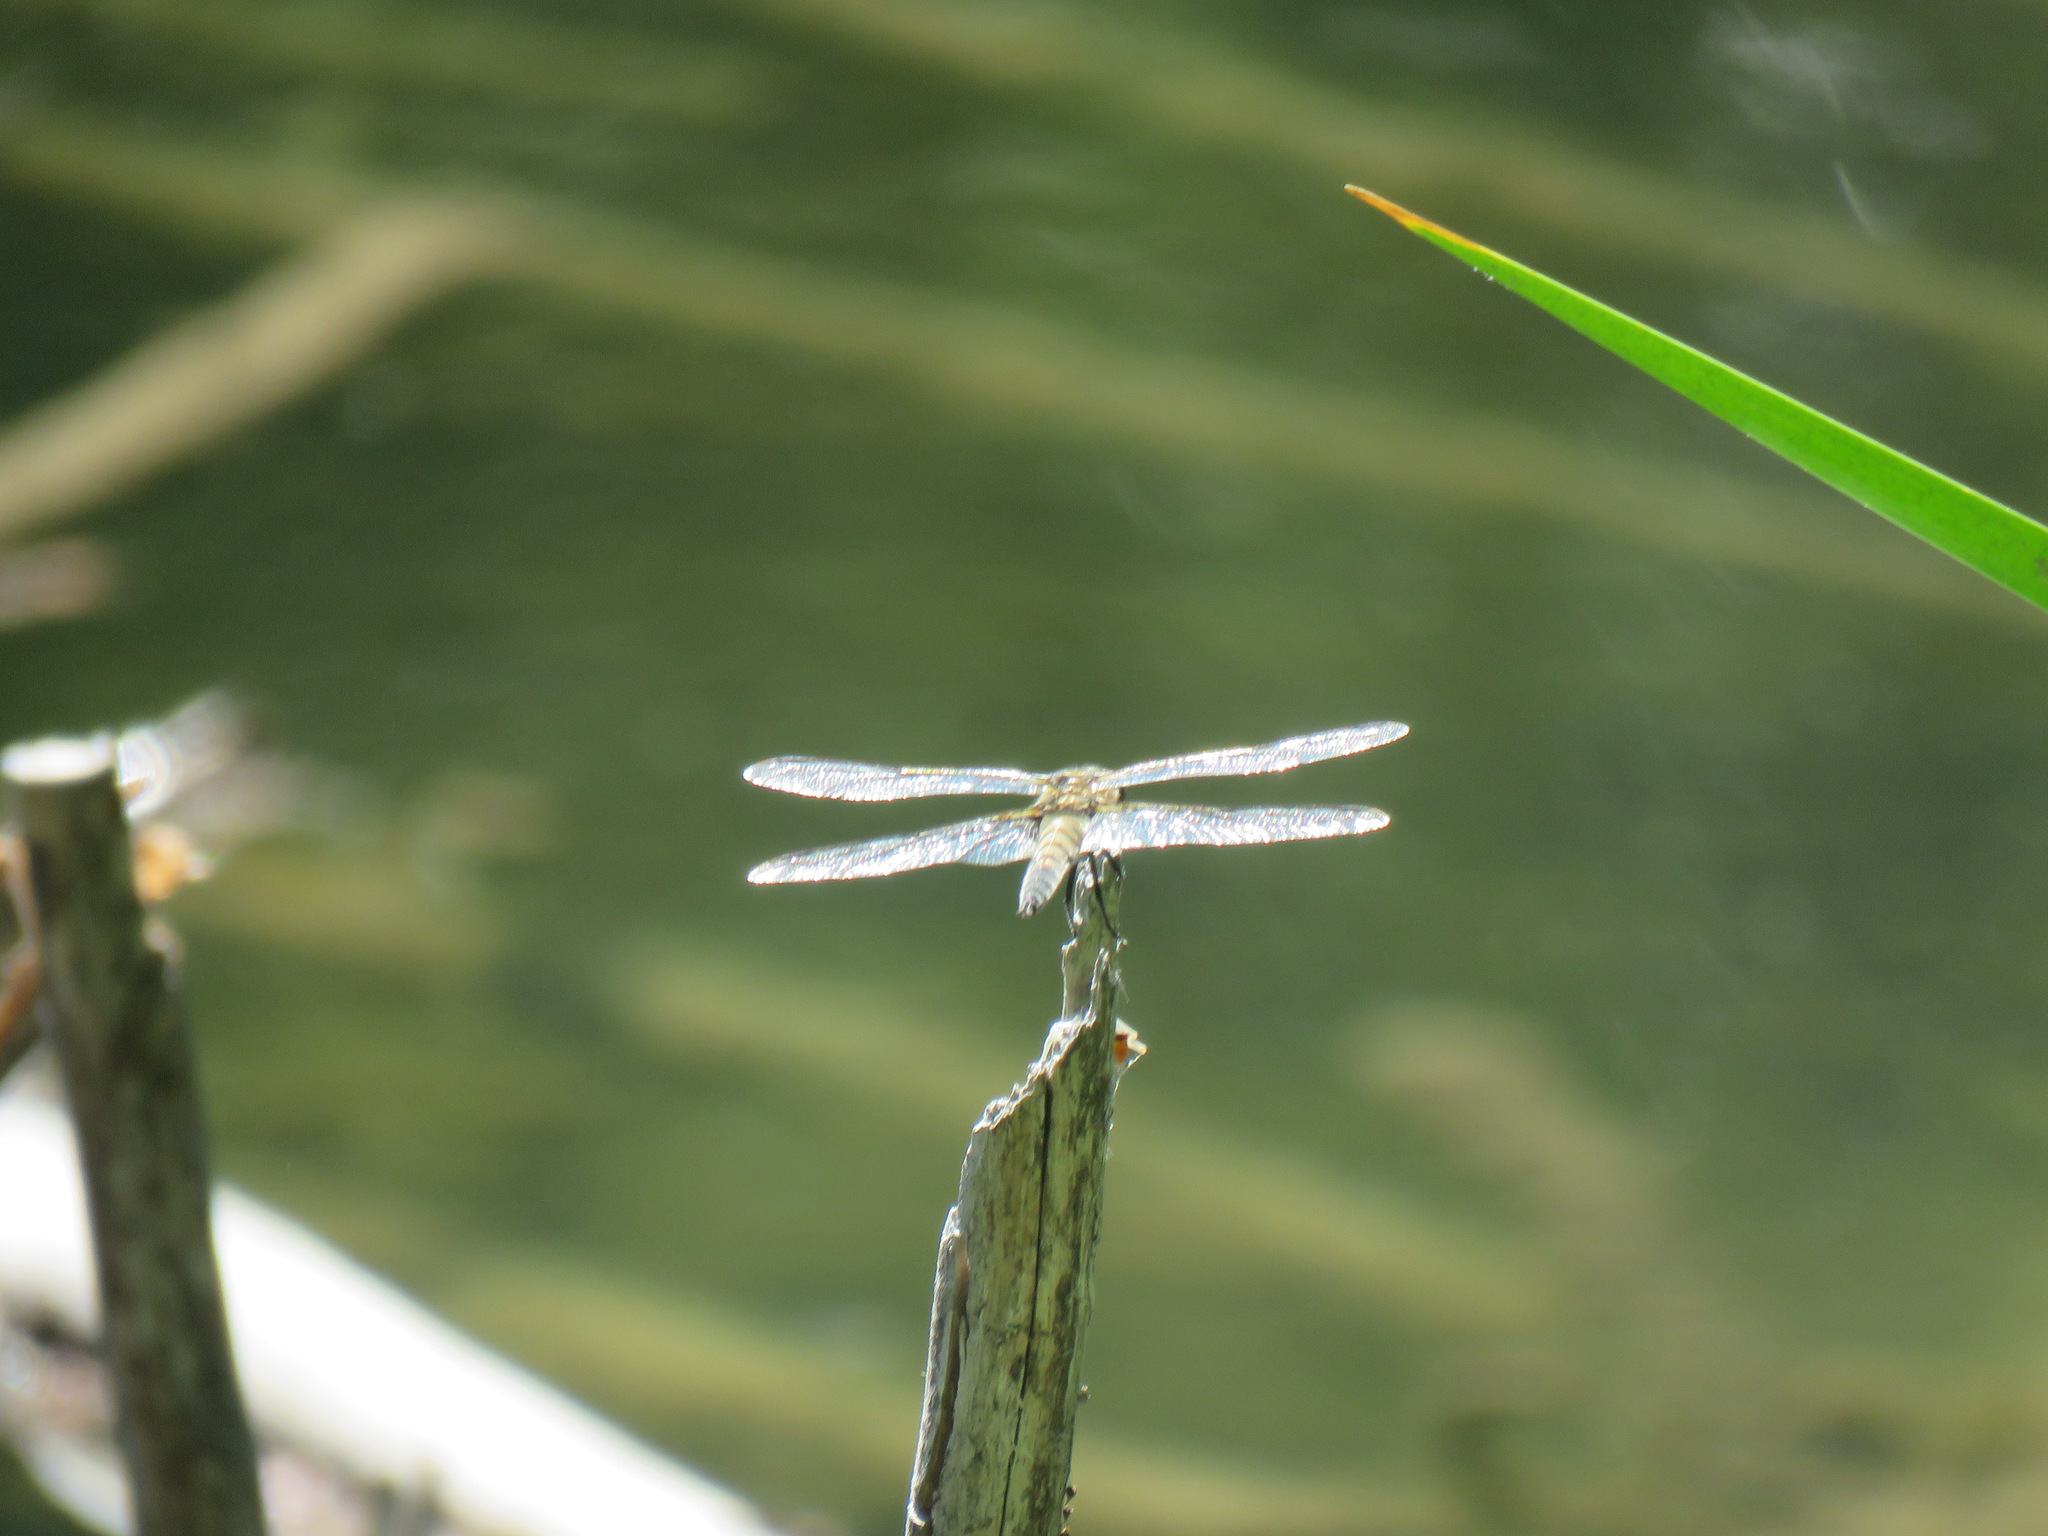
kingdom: Animalia
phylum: Arthropoda
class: Insecta
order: Odonata
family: Libellulidae
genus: Libellula
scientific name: Libellula quadrimaculata
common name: Four-spotted chaser
